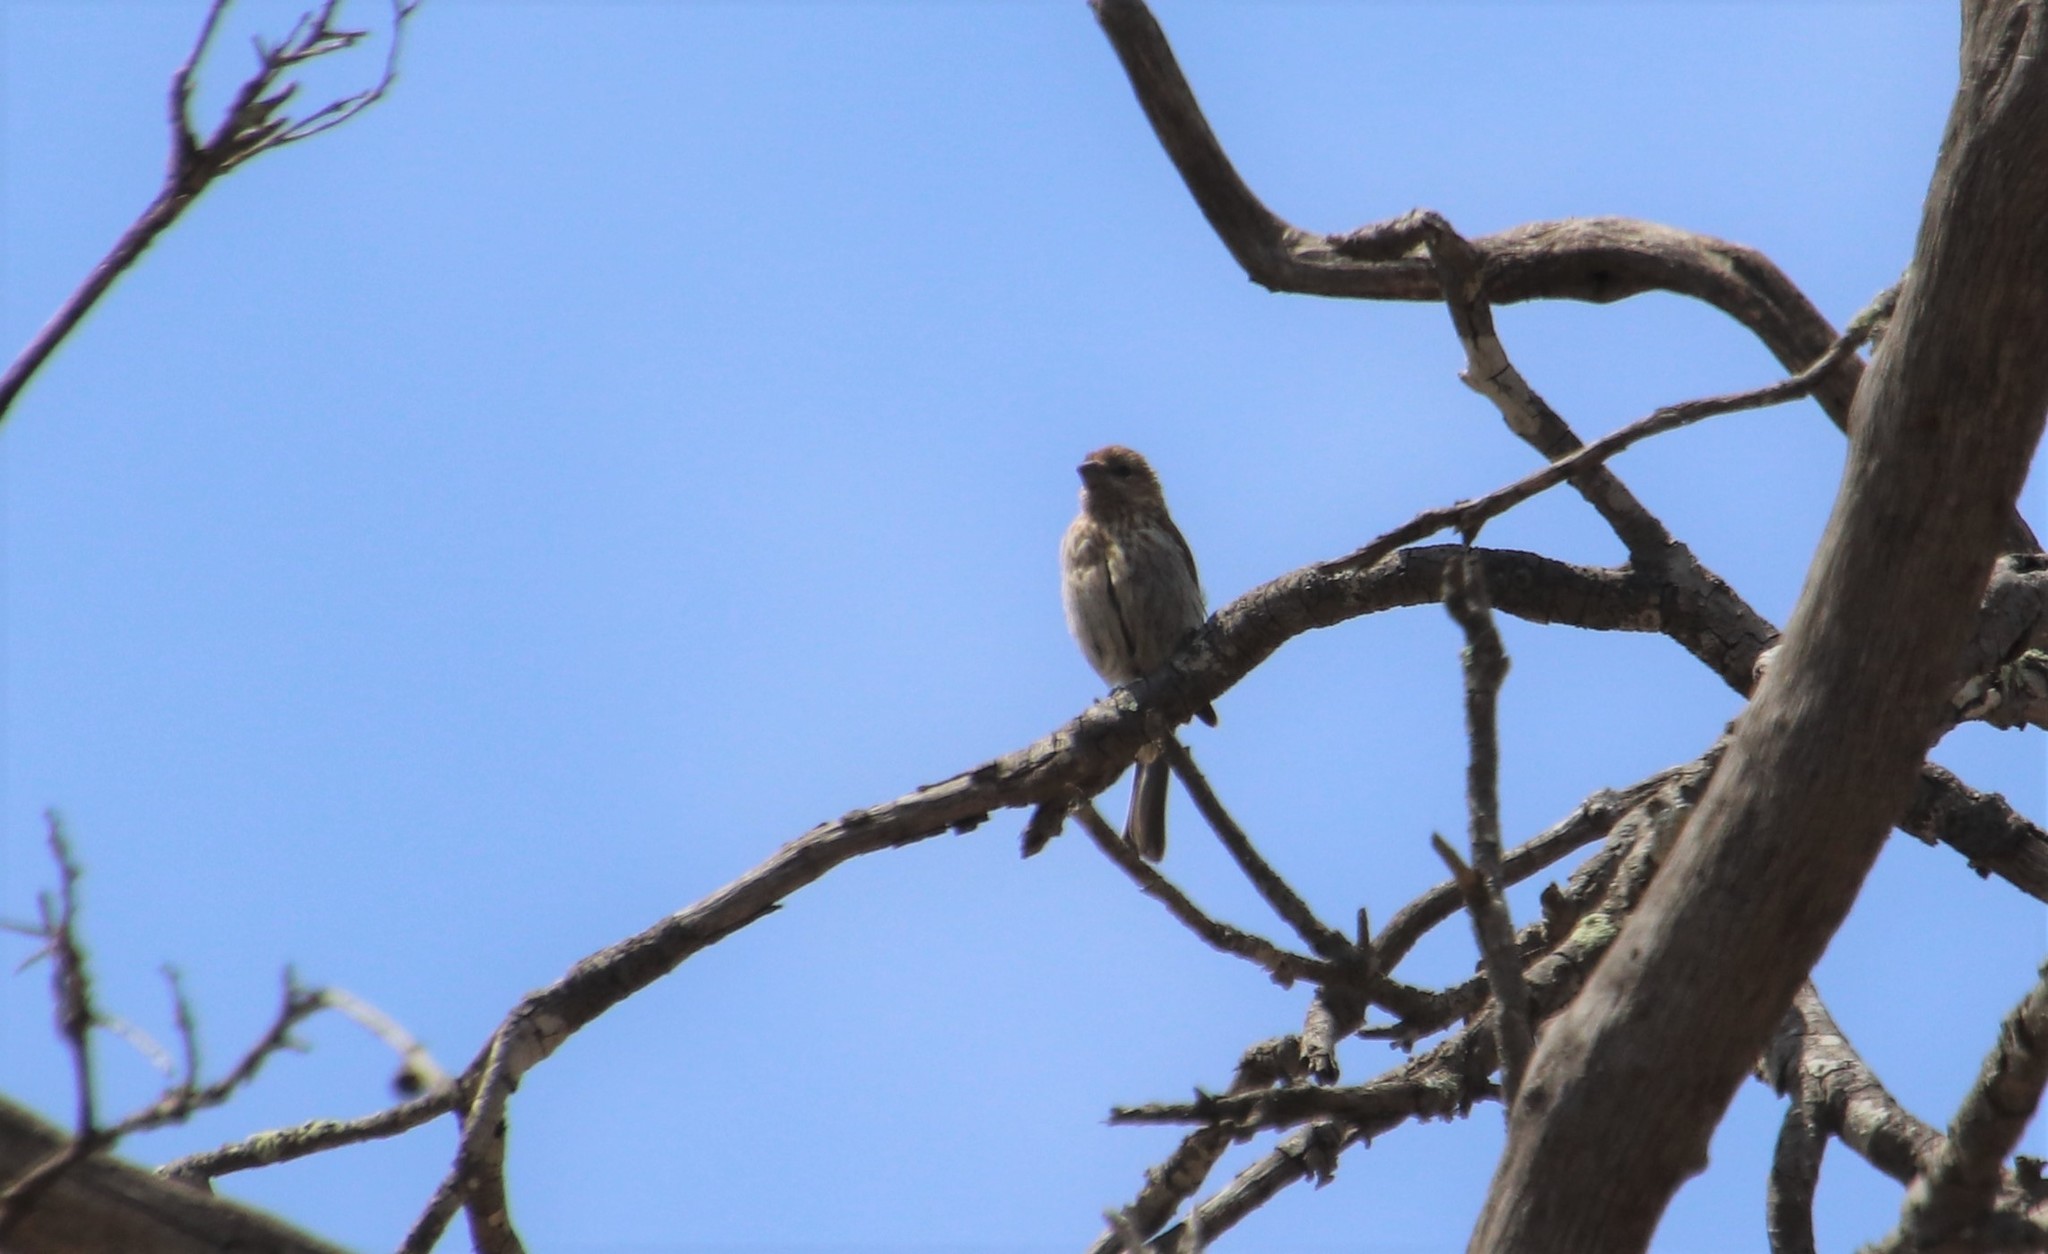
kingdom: Animalia
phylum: Chordata
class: Aves
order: Passeriformes
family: Fringillidae
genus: Haemorhous
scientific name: Haemorhous mexicanus
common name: House finch
